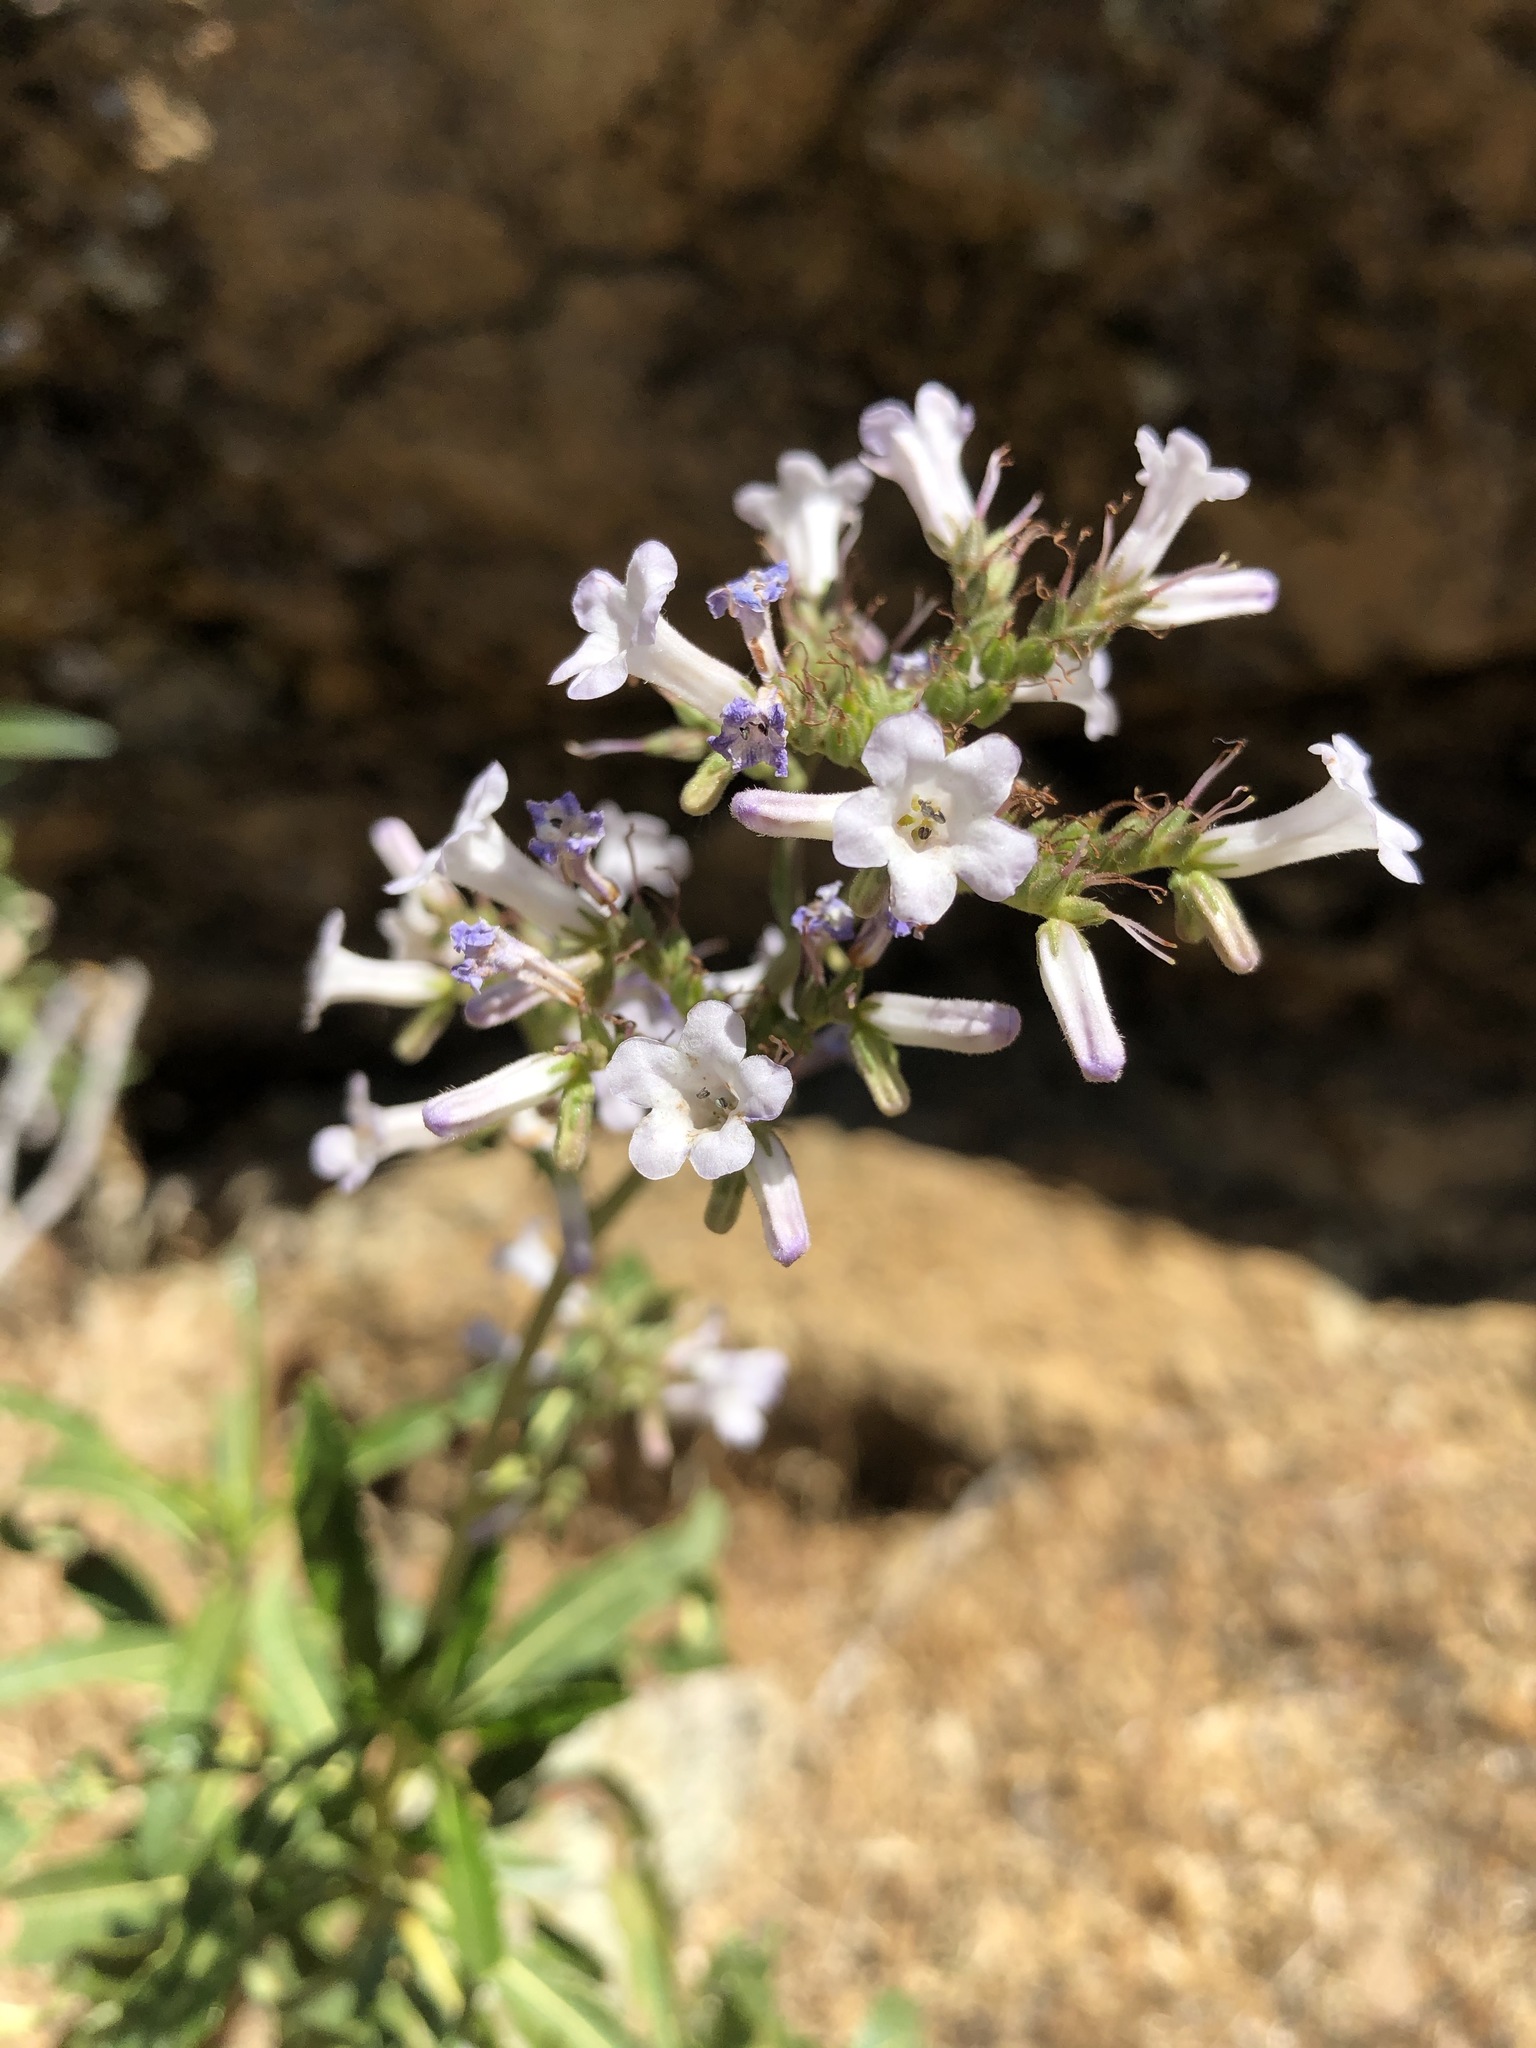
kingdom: Plantae
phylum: Tracheophyta
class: Magnoliopsida
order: Boraginales
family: Namaceae
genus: Eriodictyon
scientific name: Eriodictyon californicum
